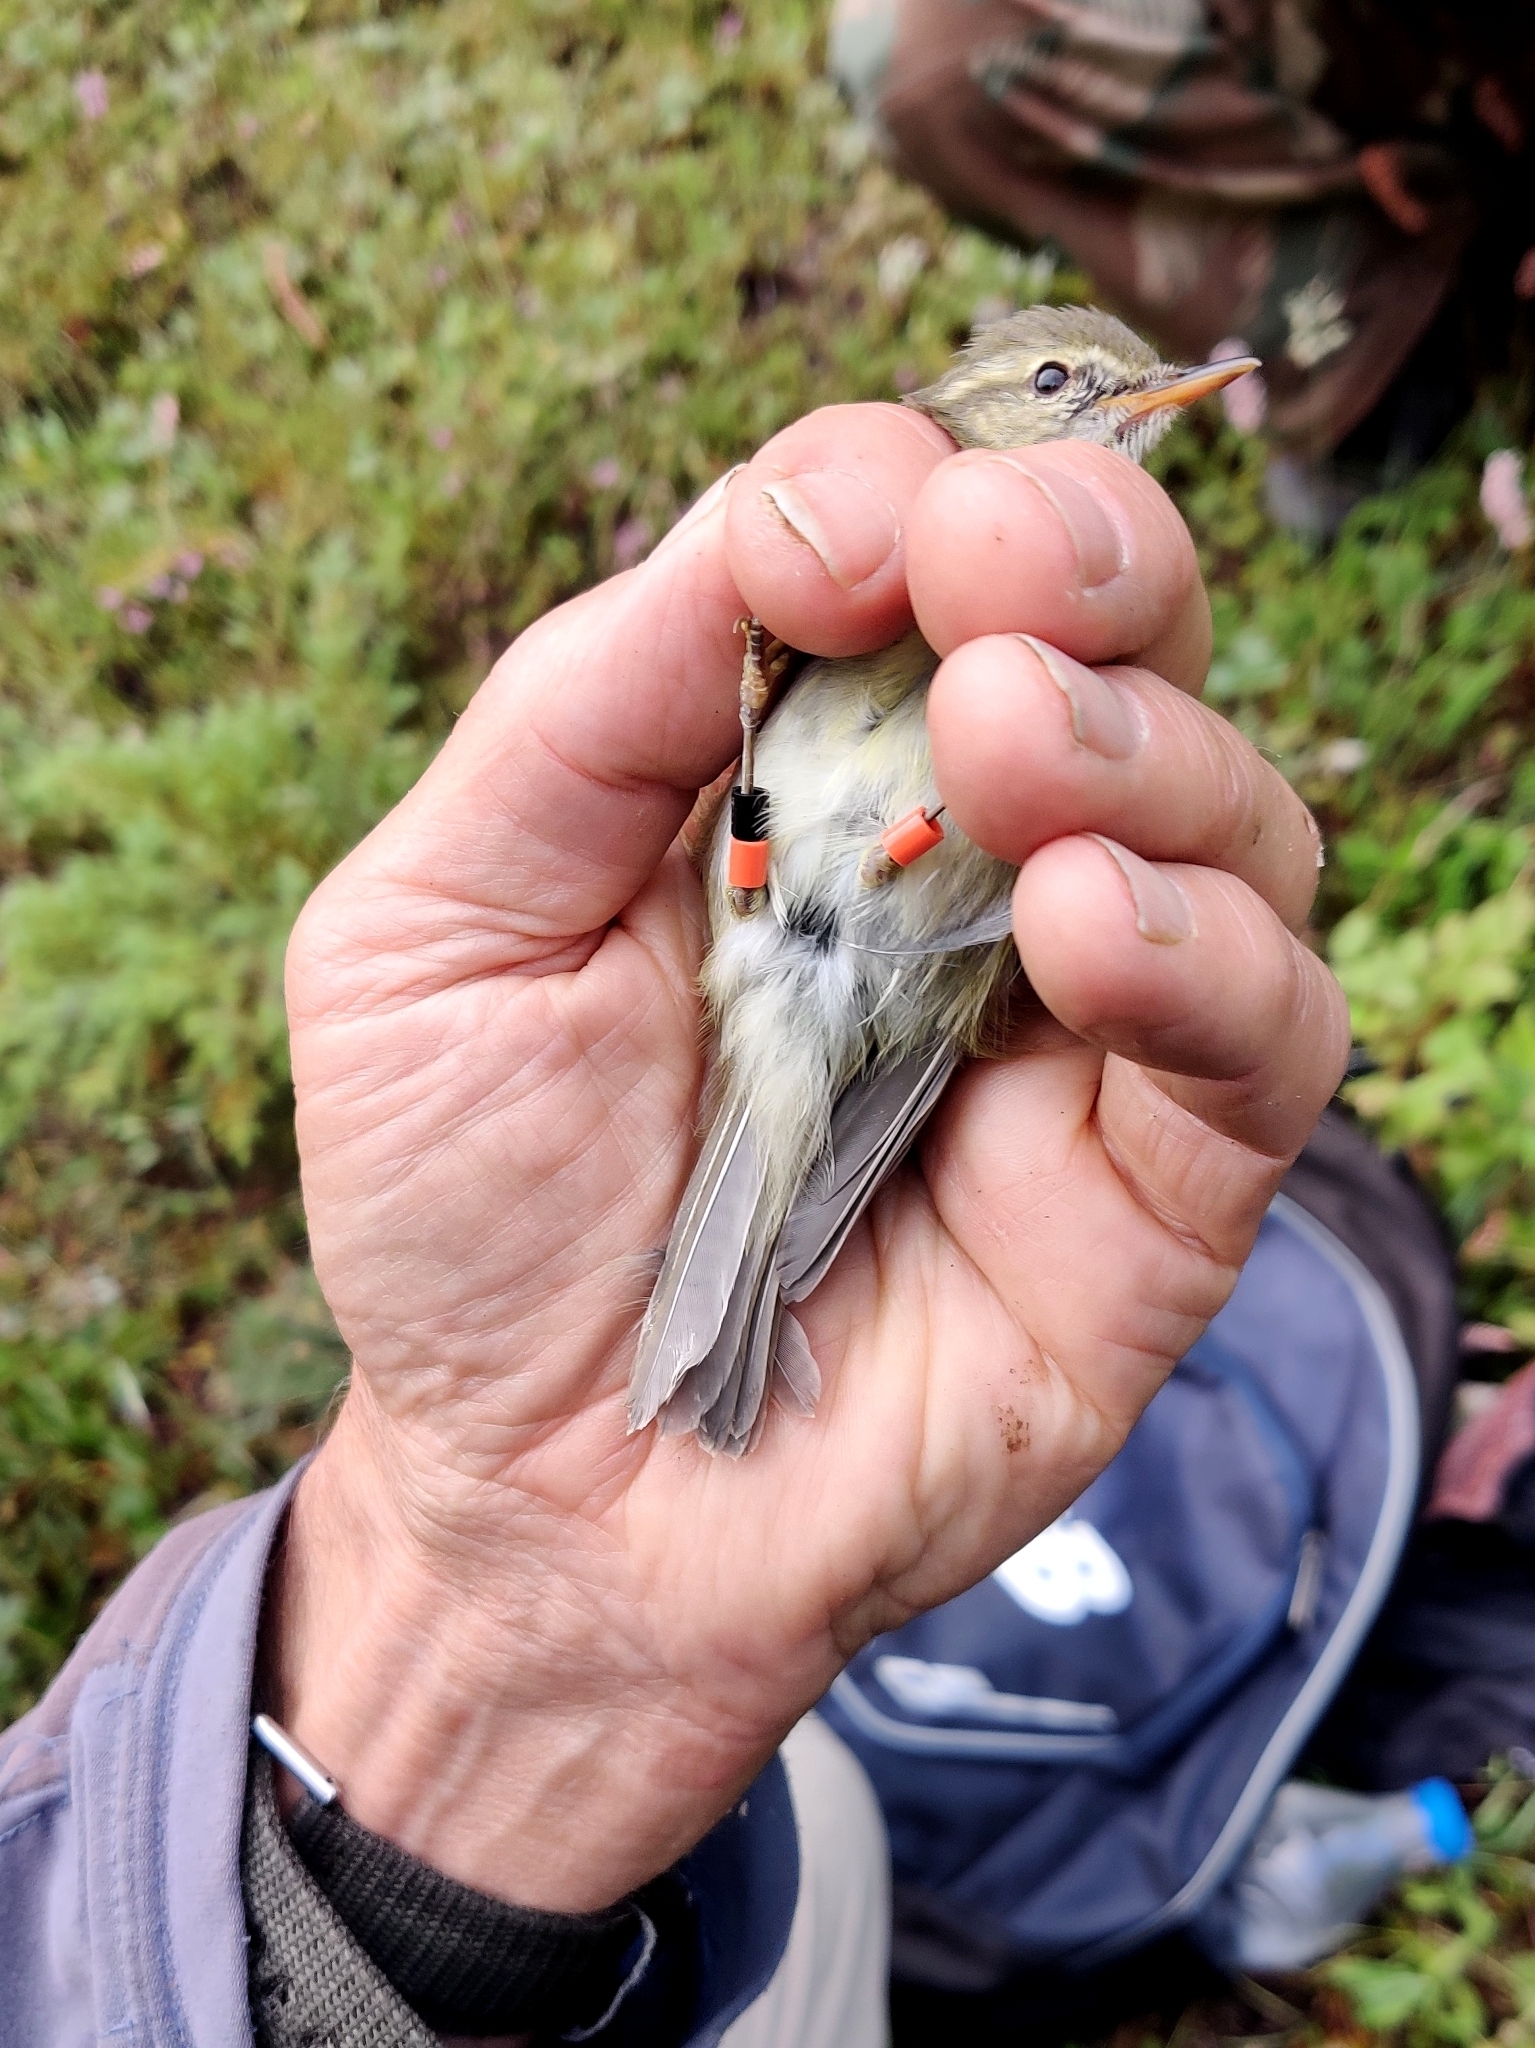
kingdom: Animalia
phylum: Chordata
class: Aves
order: Passeriformes
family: Phylloscopidae
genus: Phylloscopus
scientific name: Phylloscopus trochiloides
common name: Greenish warbler
